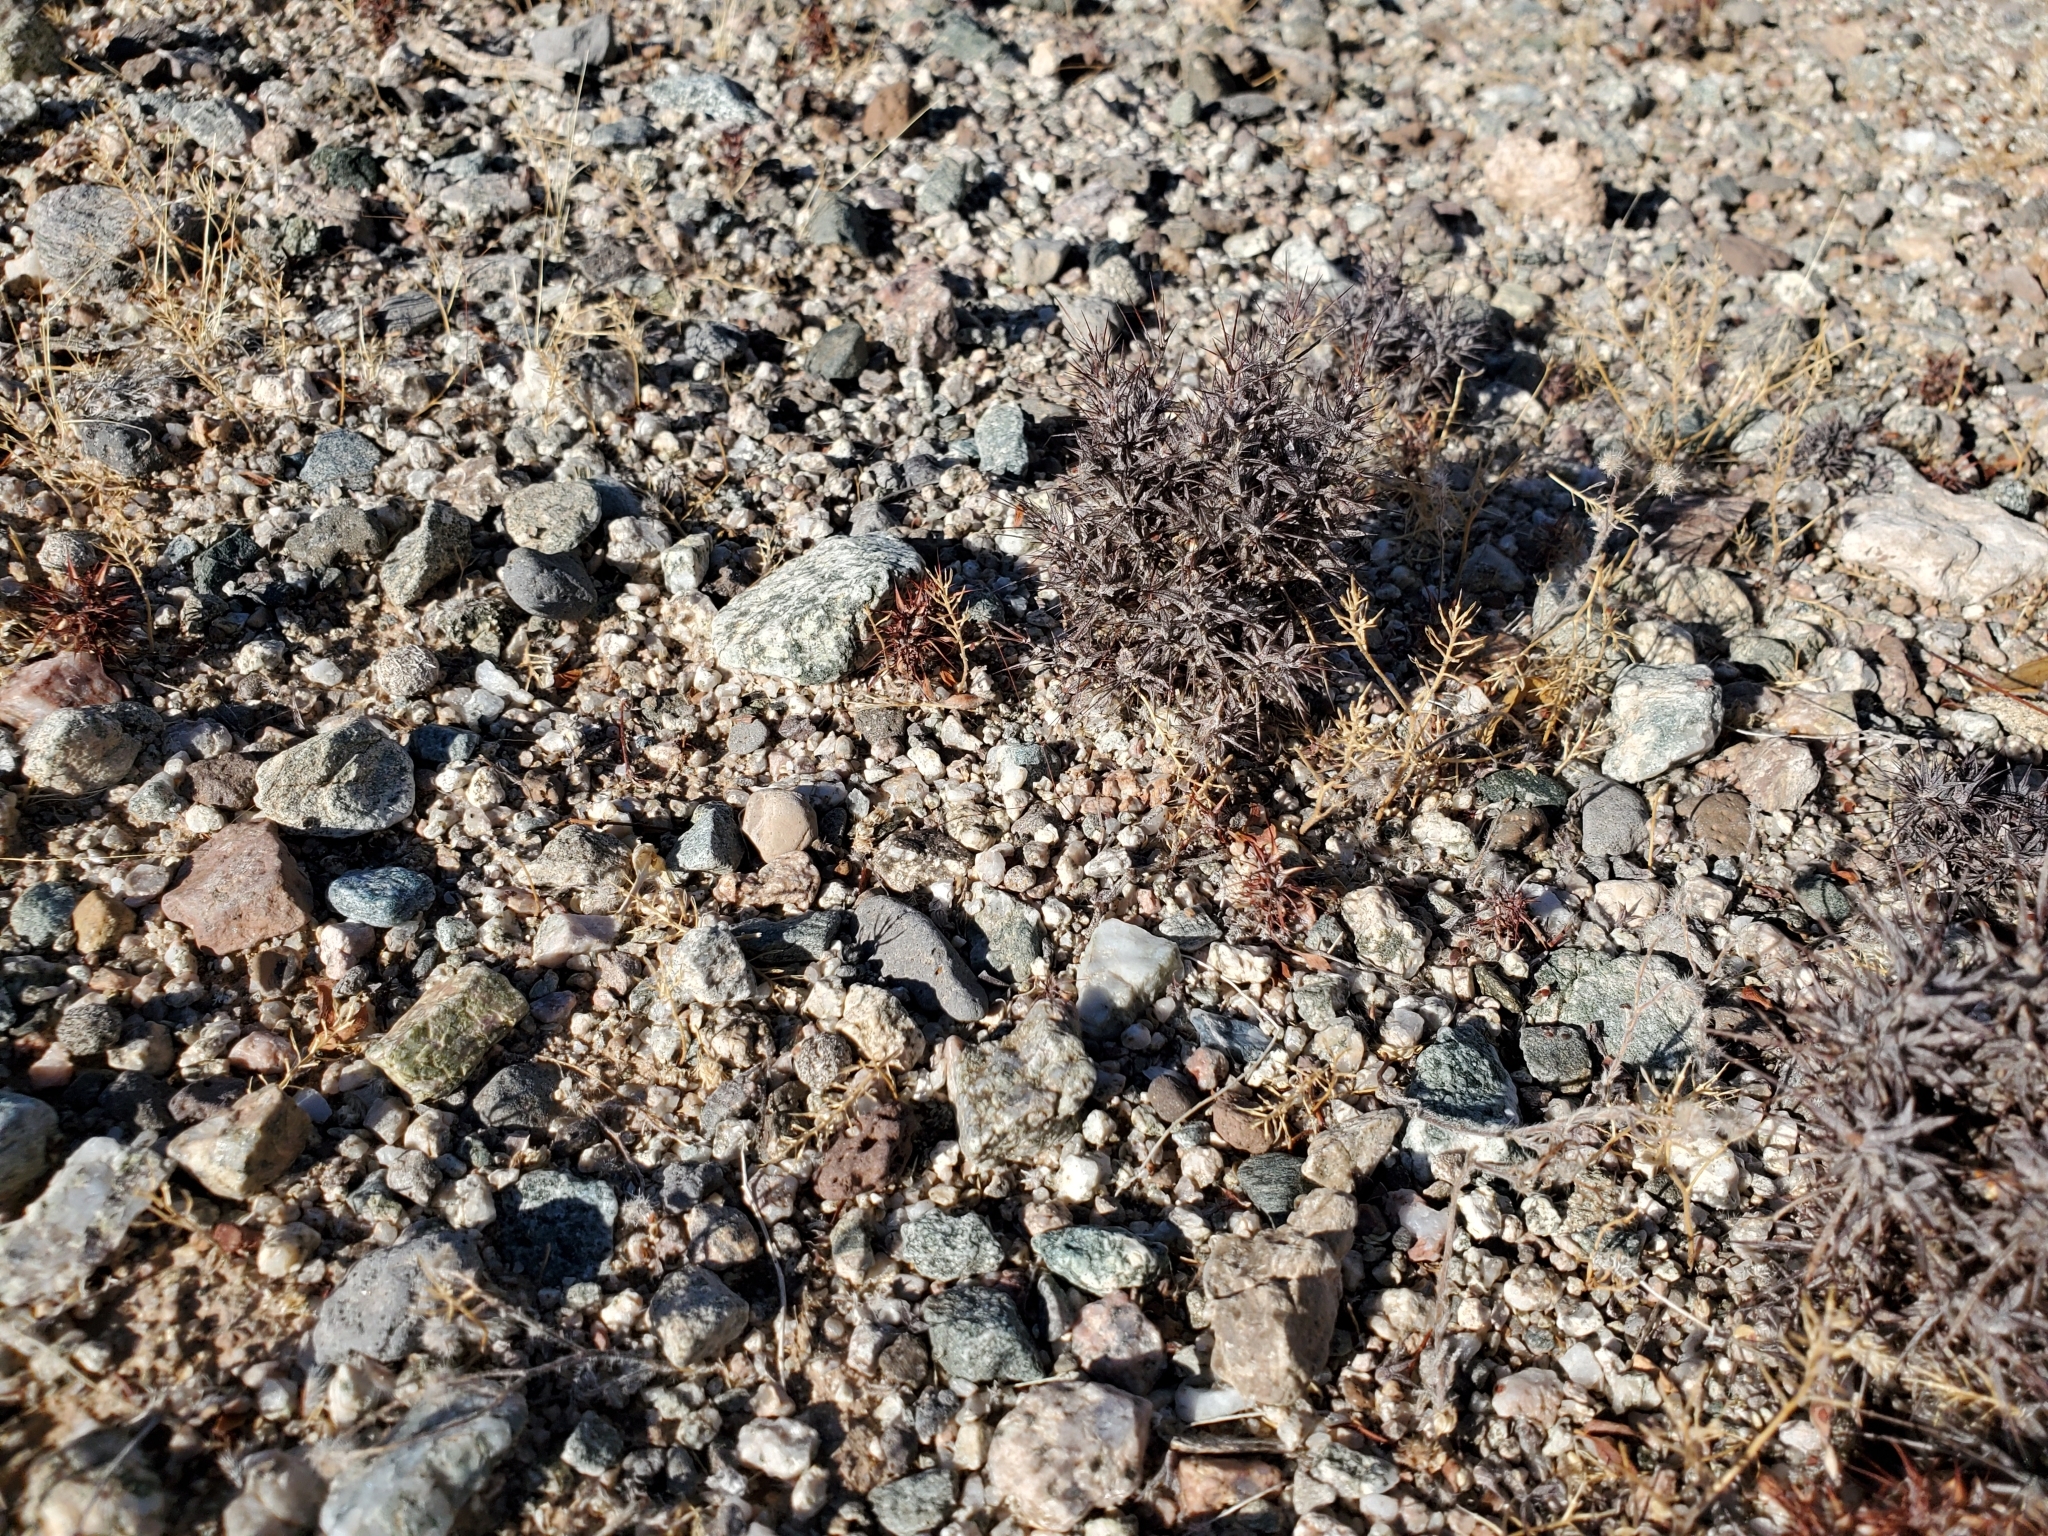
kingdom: Plantae
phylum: Tracheophyta
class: Magnoliopsida
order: Caryophyllales
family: Polygonaceae
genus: Chorizanthe
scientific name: Chorizanthe rigida
